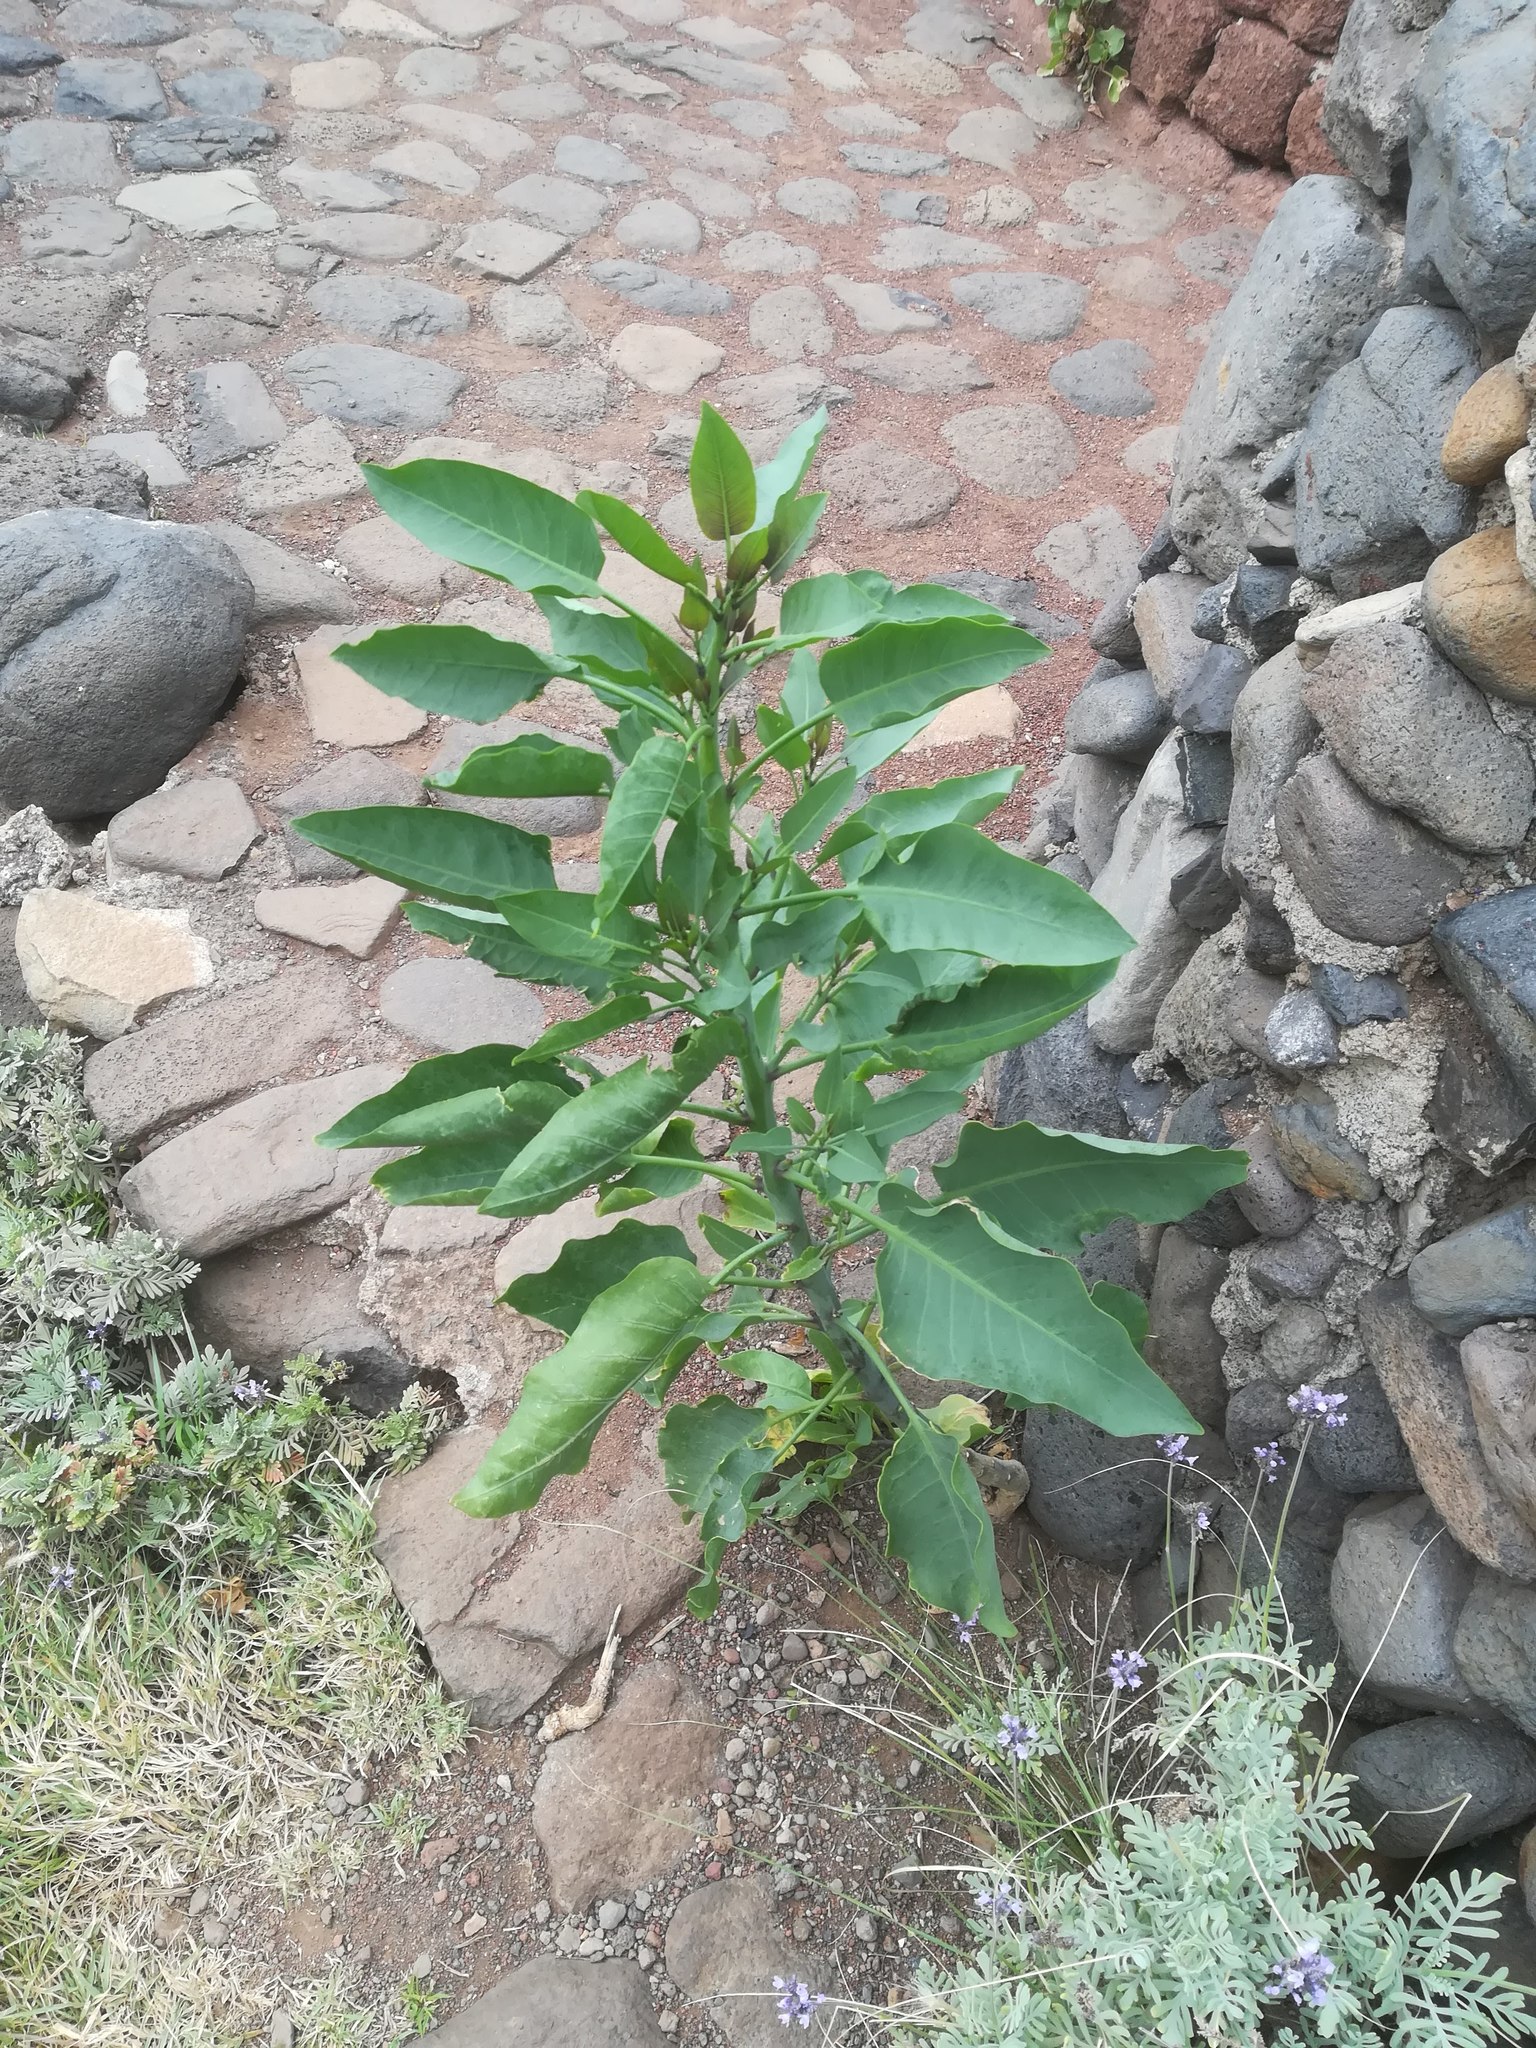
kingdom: Plantae
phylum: Tracheophyta
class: Magnoliopsida
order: Solanales
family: Solanaceae
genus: Nicotiana
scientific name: Nicotiana glauca
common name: Tree tobacco
